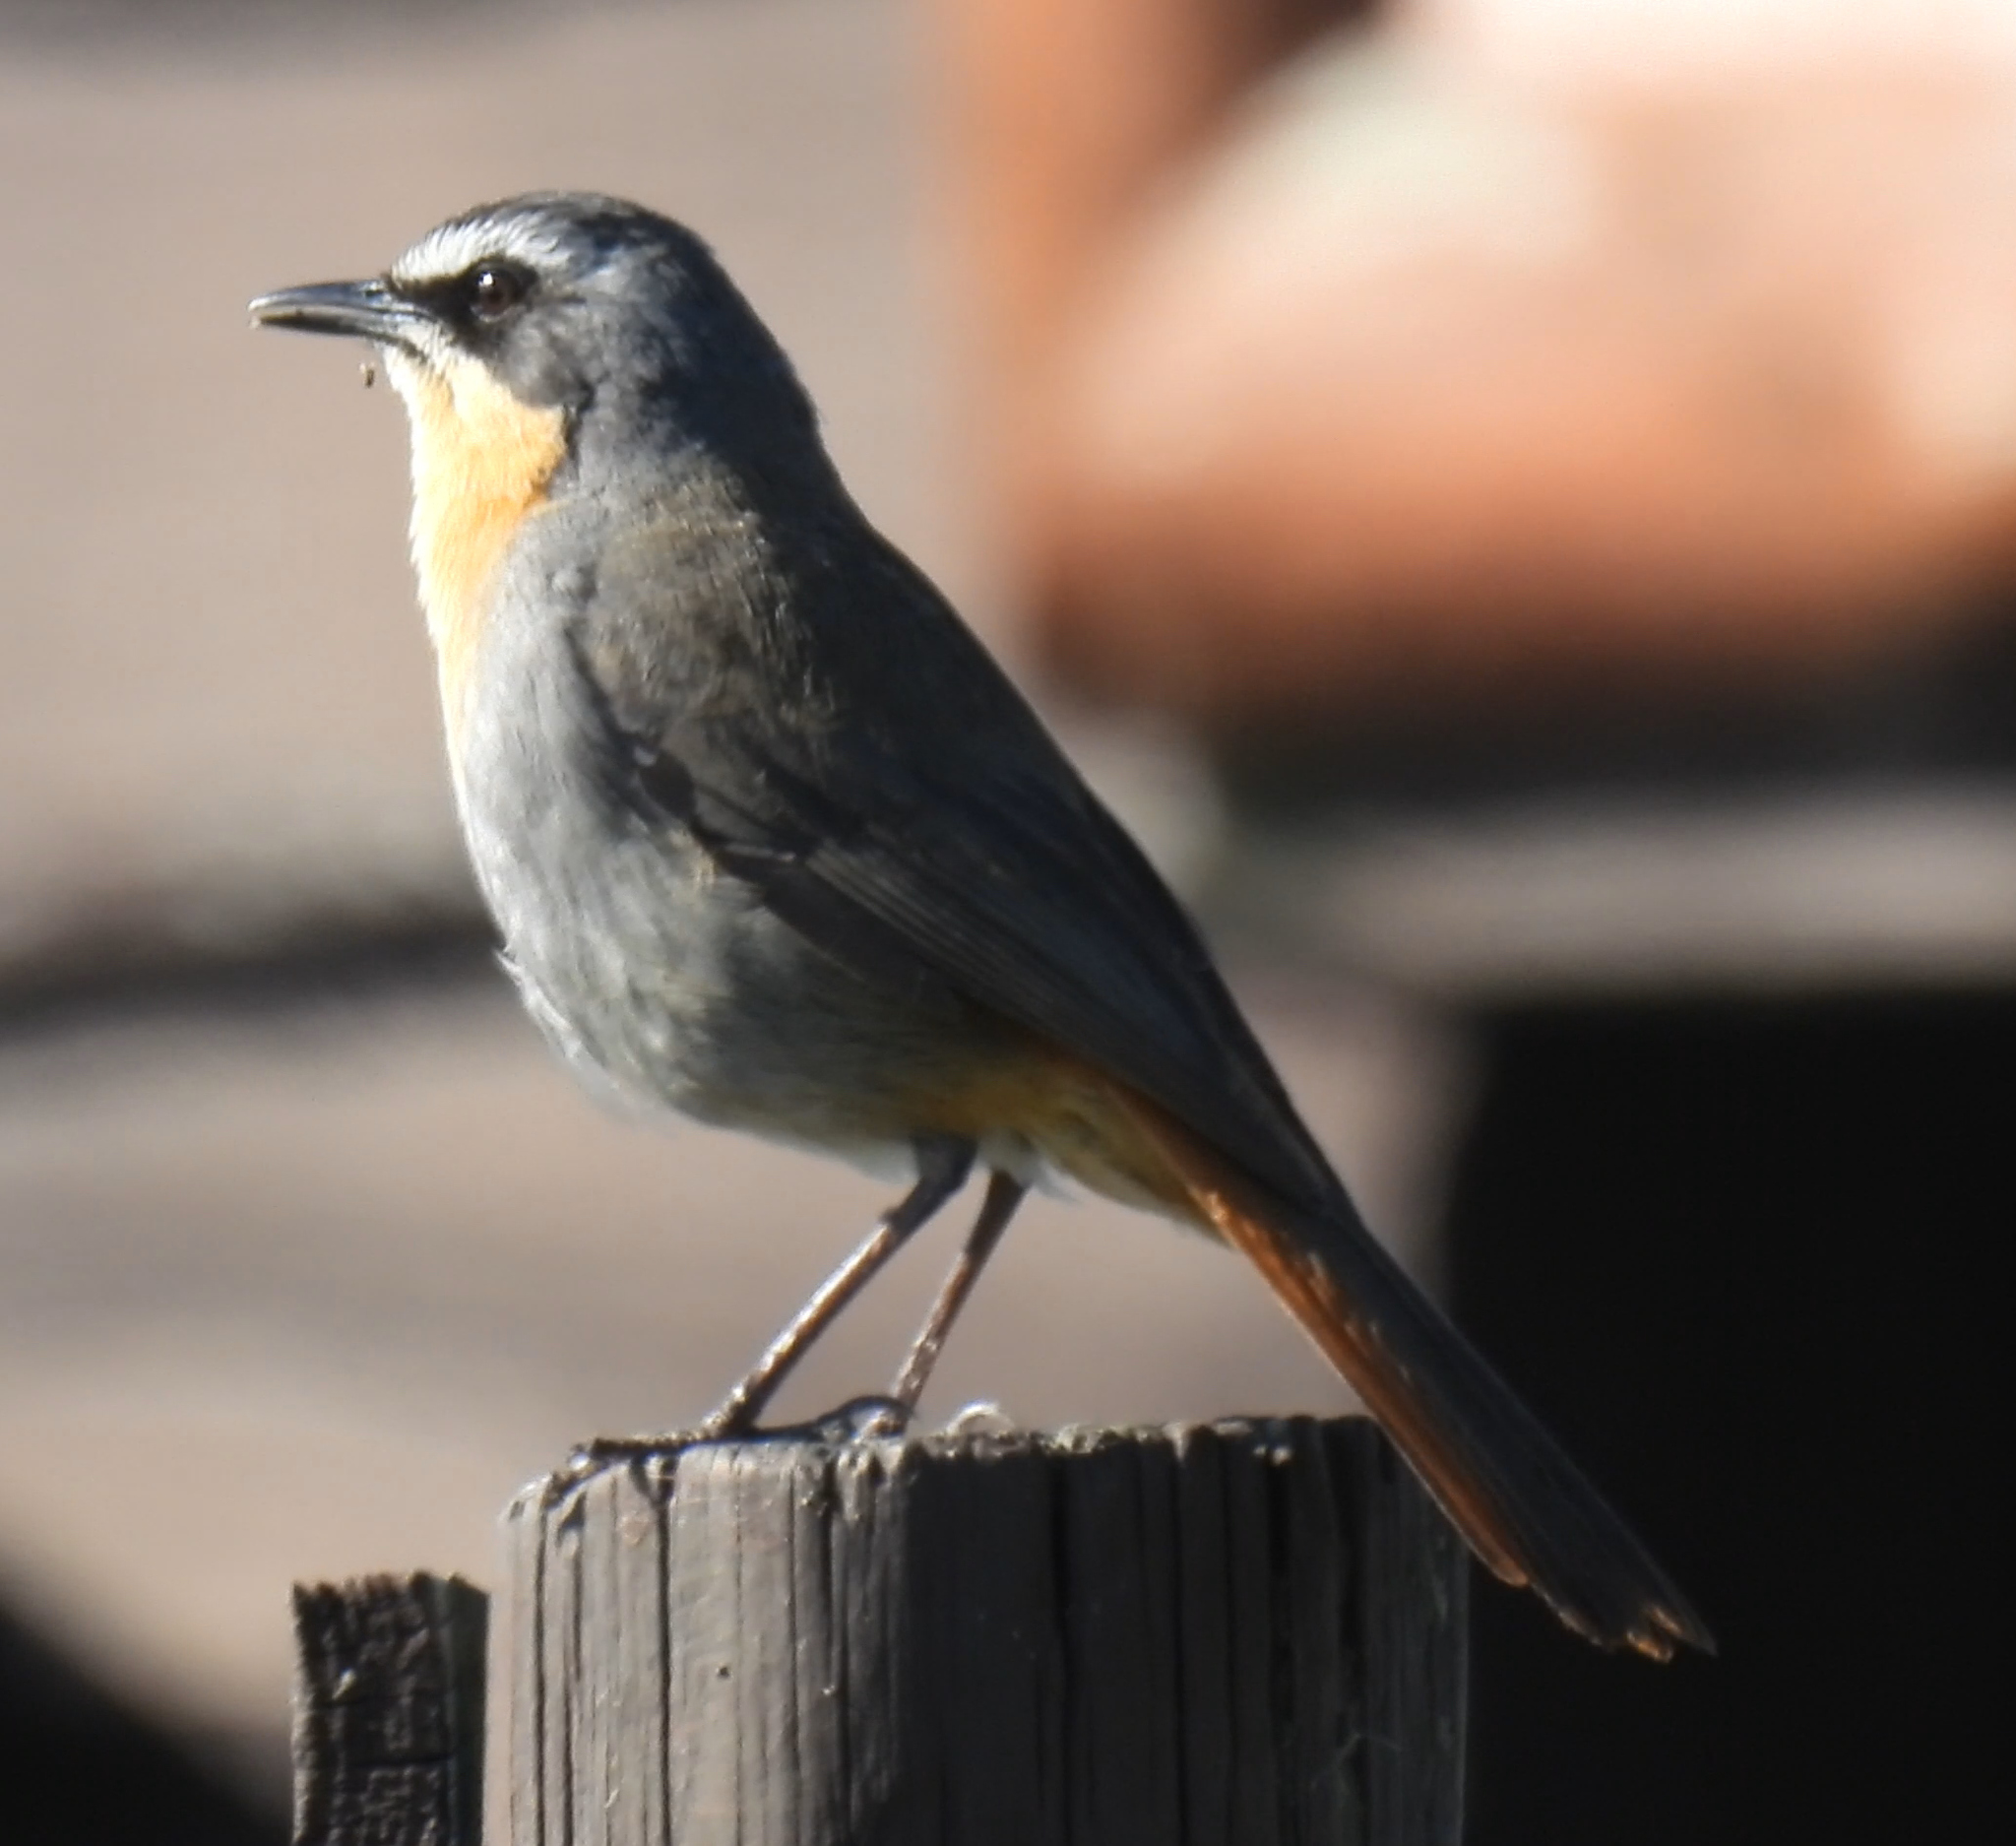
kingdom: Animalia
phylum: Chordata
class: Aves
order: Passeriformes
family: Muscicapidae
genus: Cossypha
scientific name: Cossypha caffra
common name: Cape robin-chat
